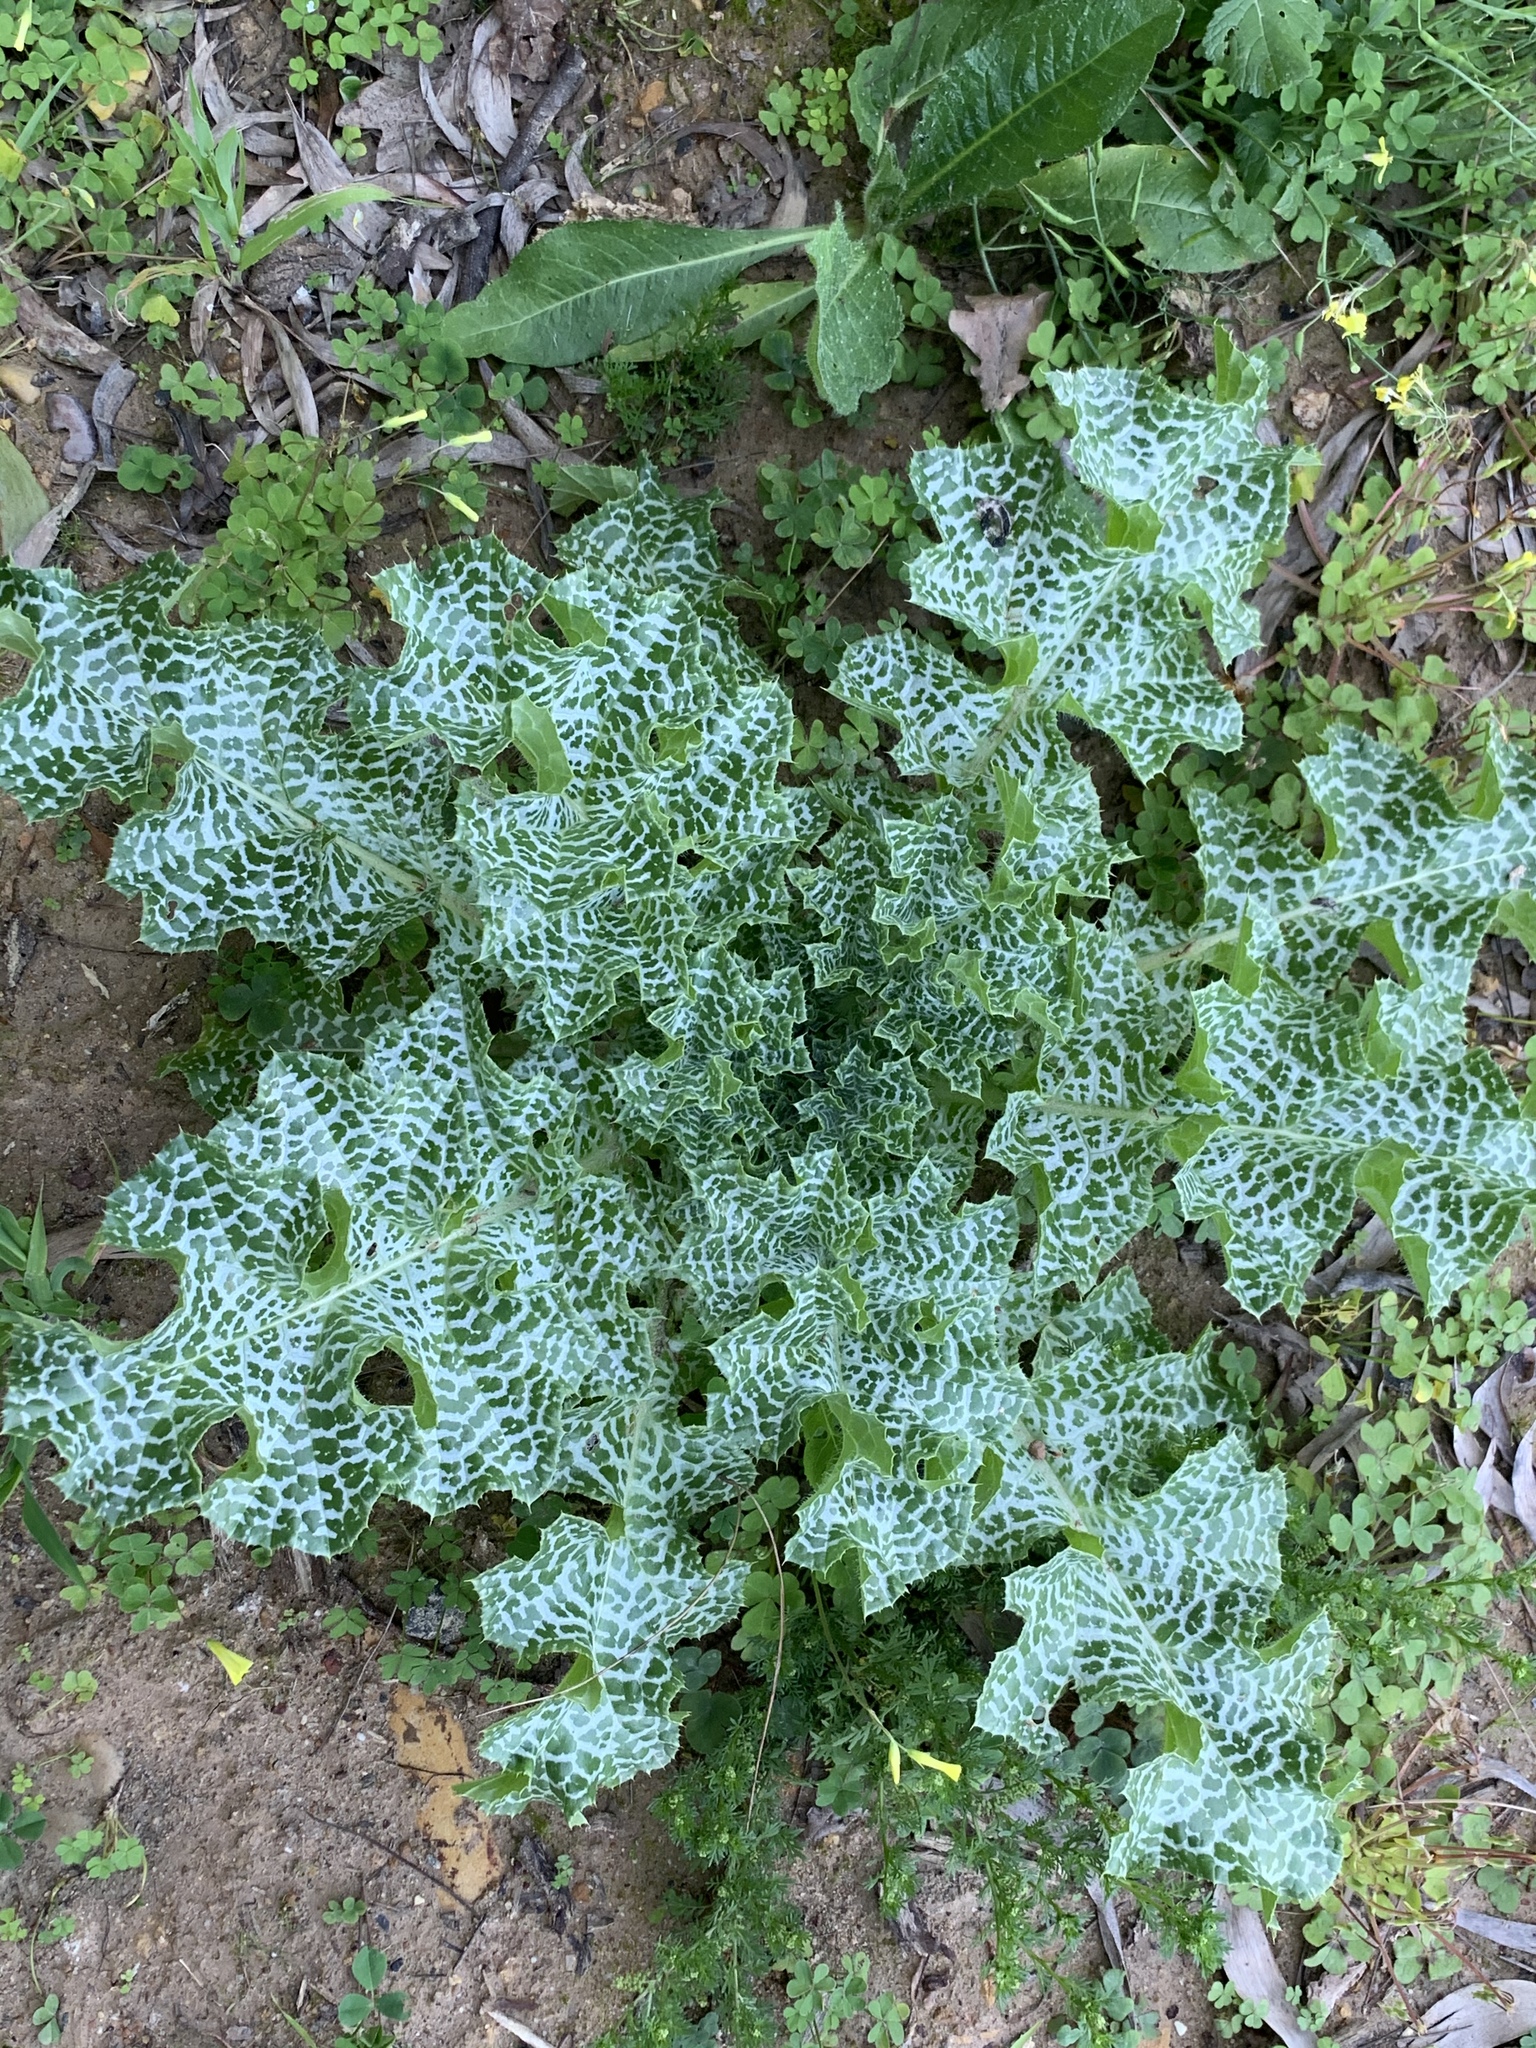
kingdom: Plantae
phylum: Tracheophyta
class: Magnoliopsida
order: Asterales
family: Asteraceae
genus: Silybum
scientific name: Silybum marianum
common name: Milk thistle
